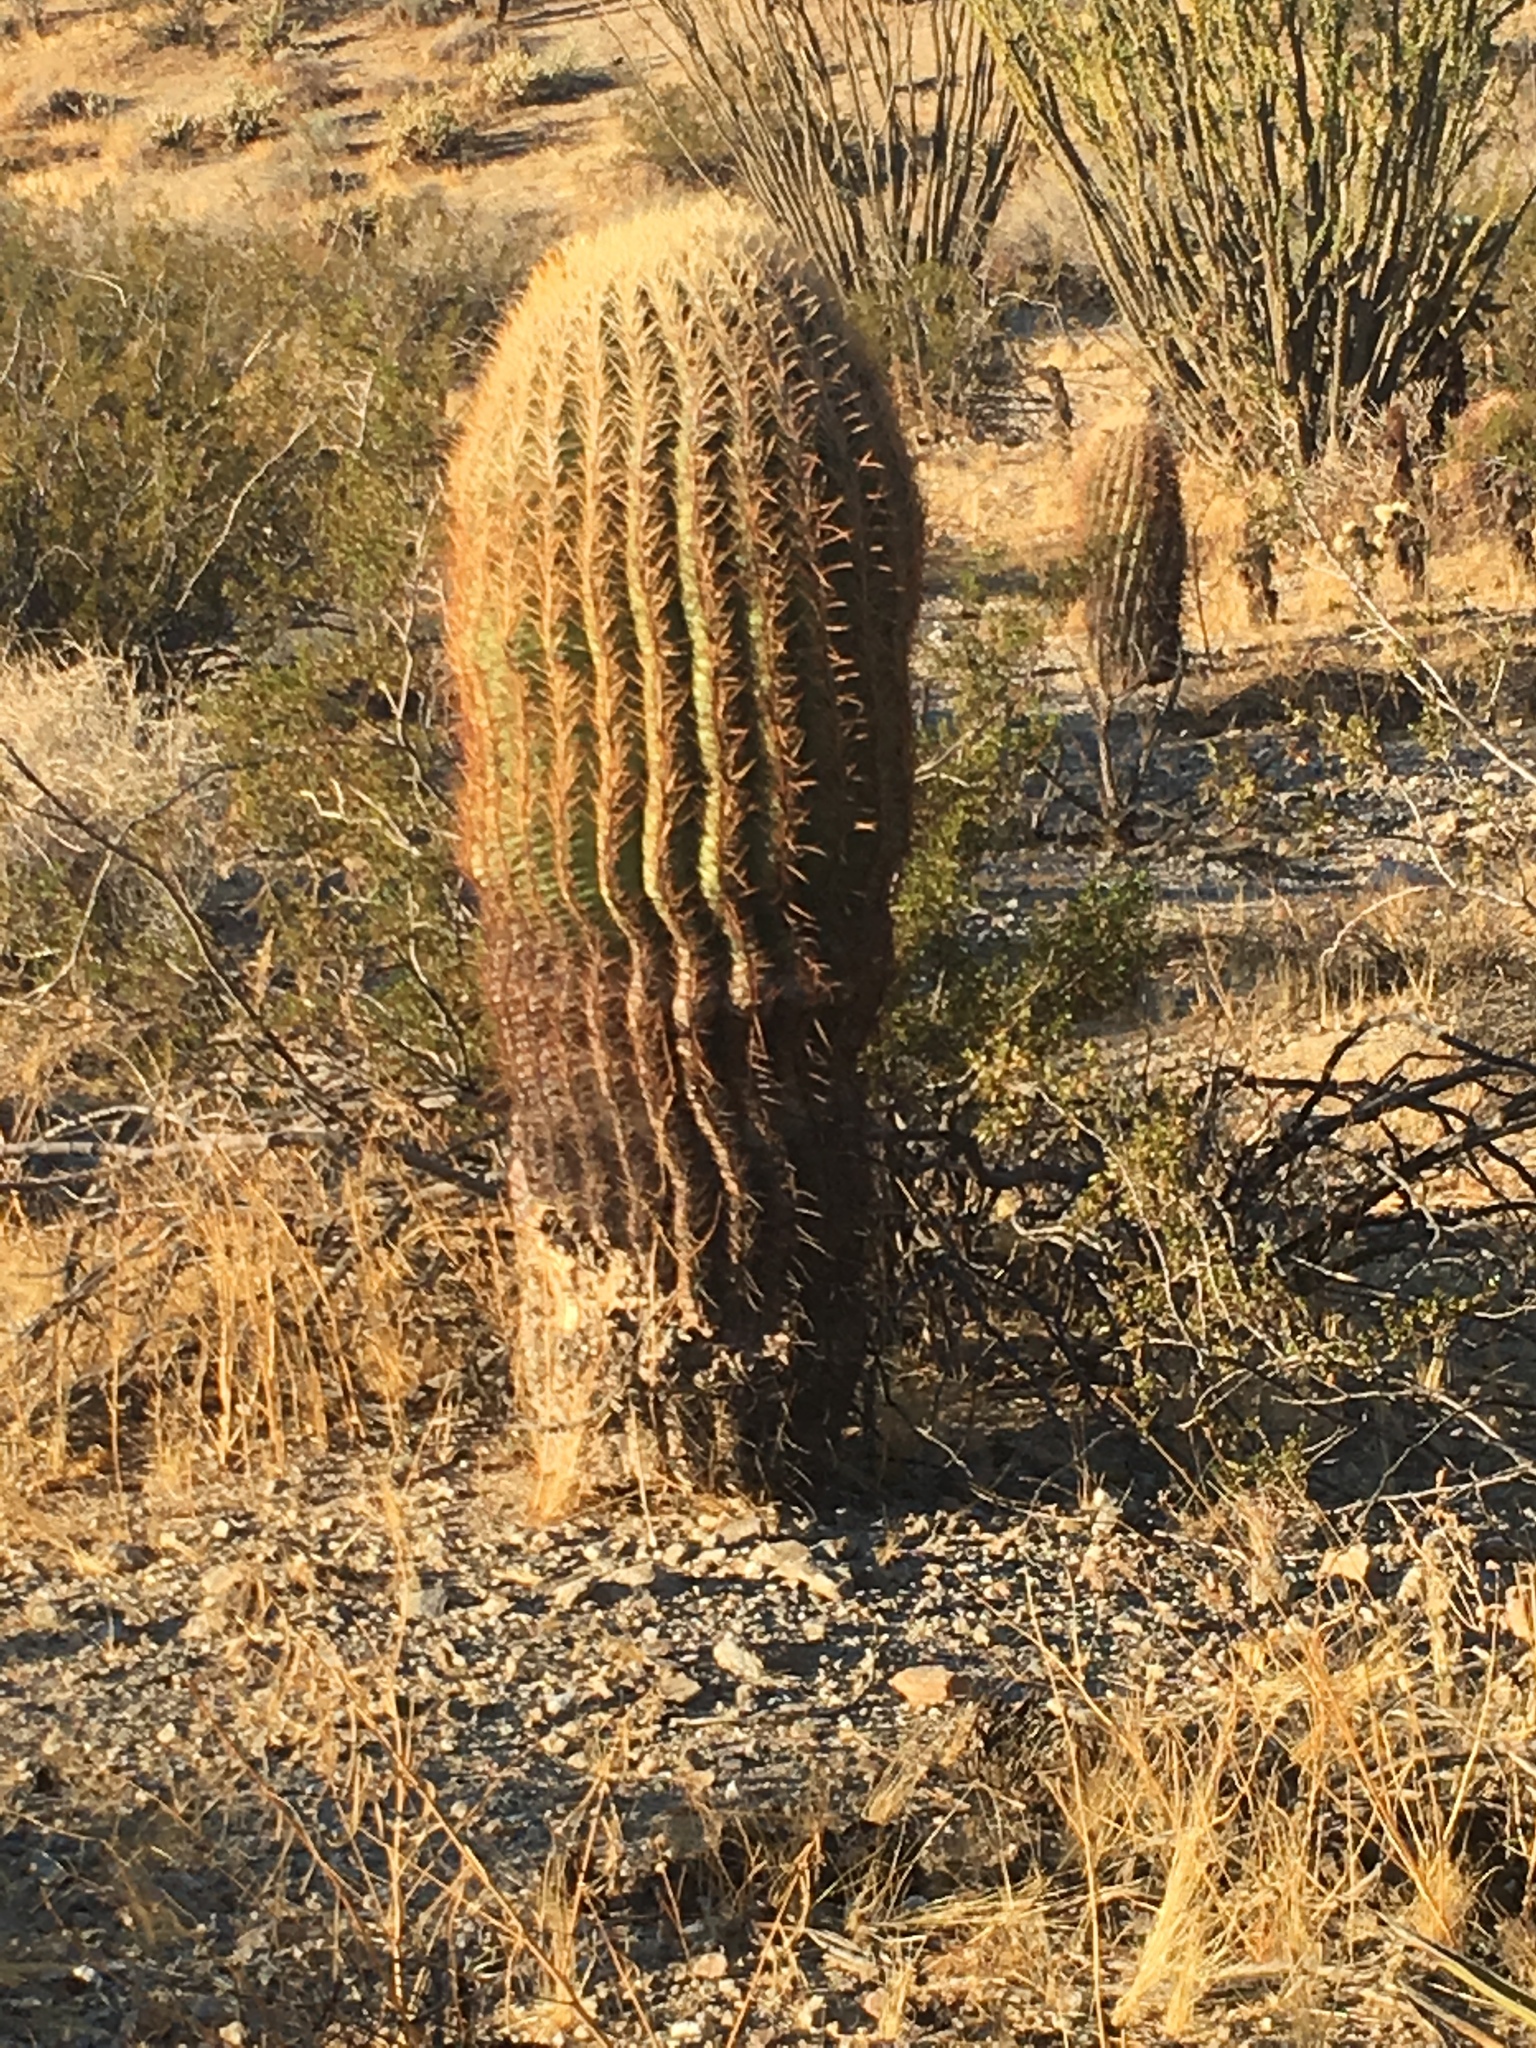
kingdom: Plantae
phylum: Tracheophyta
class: Magnoliopsida
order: Caryophyllales
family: Cactaceae
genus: Ferocactus
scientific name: Ferocactus cylindraceus
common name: California barrel cactus
